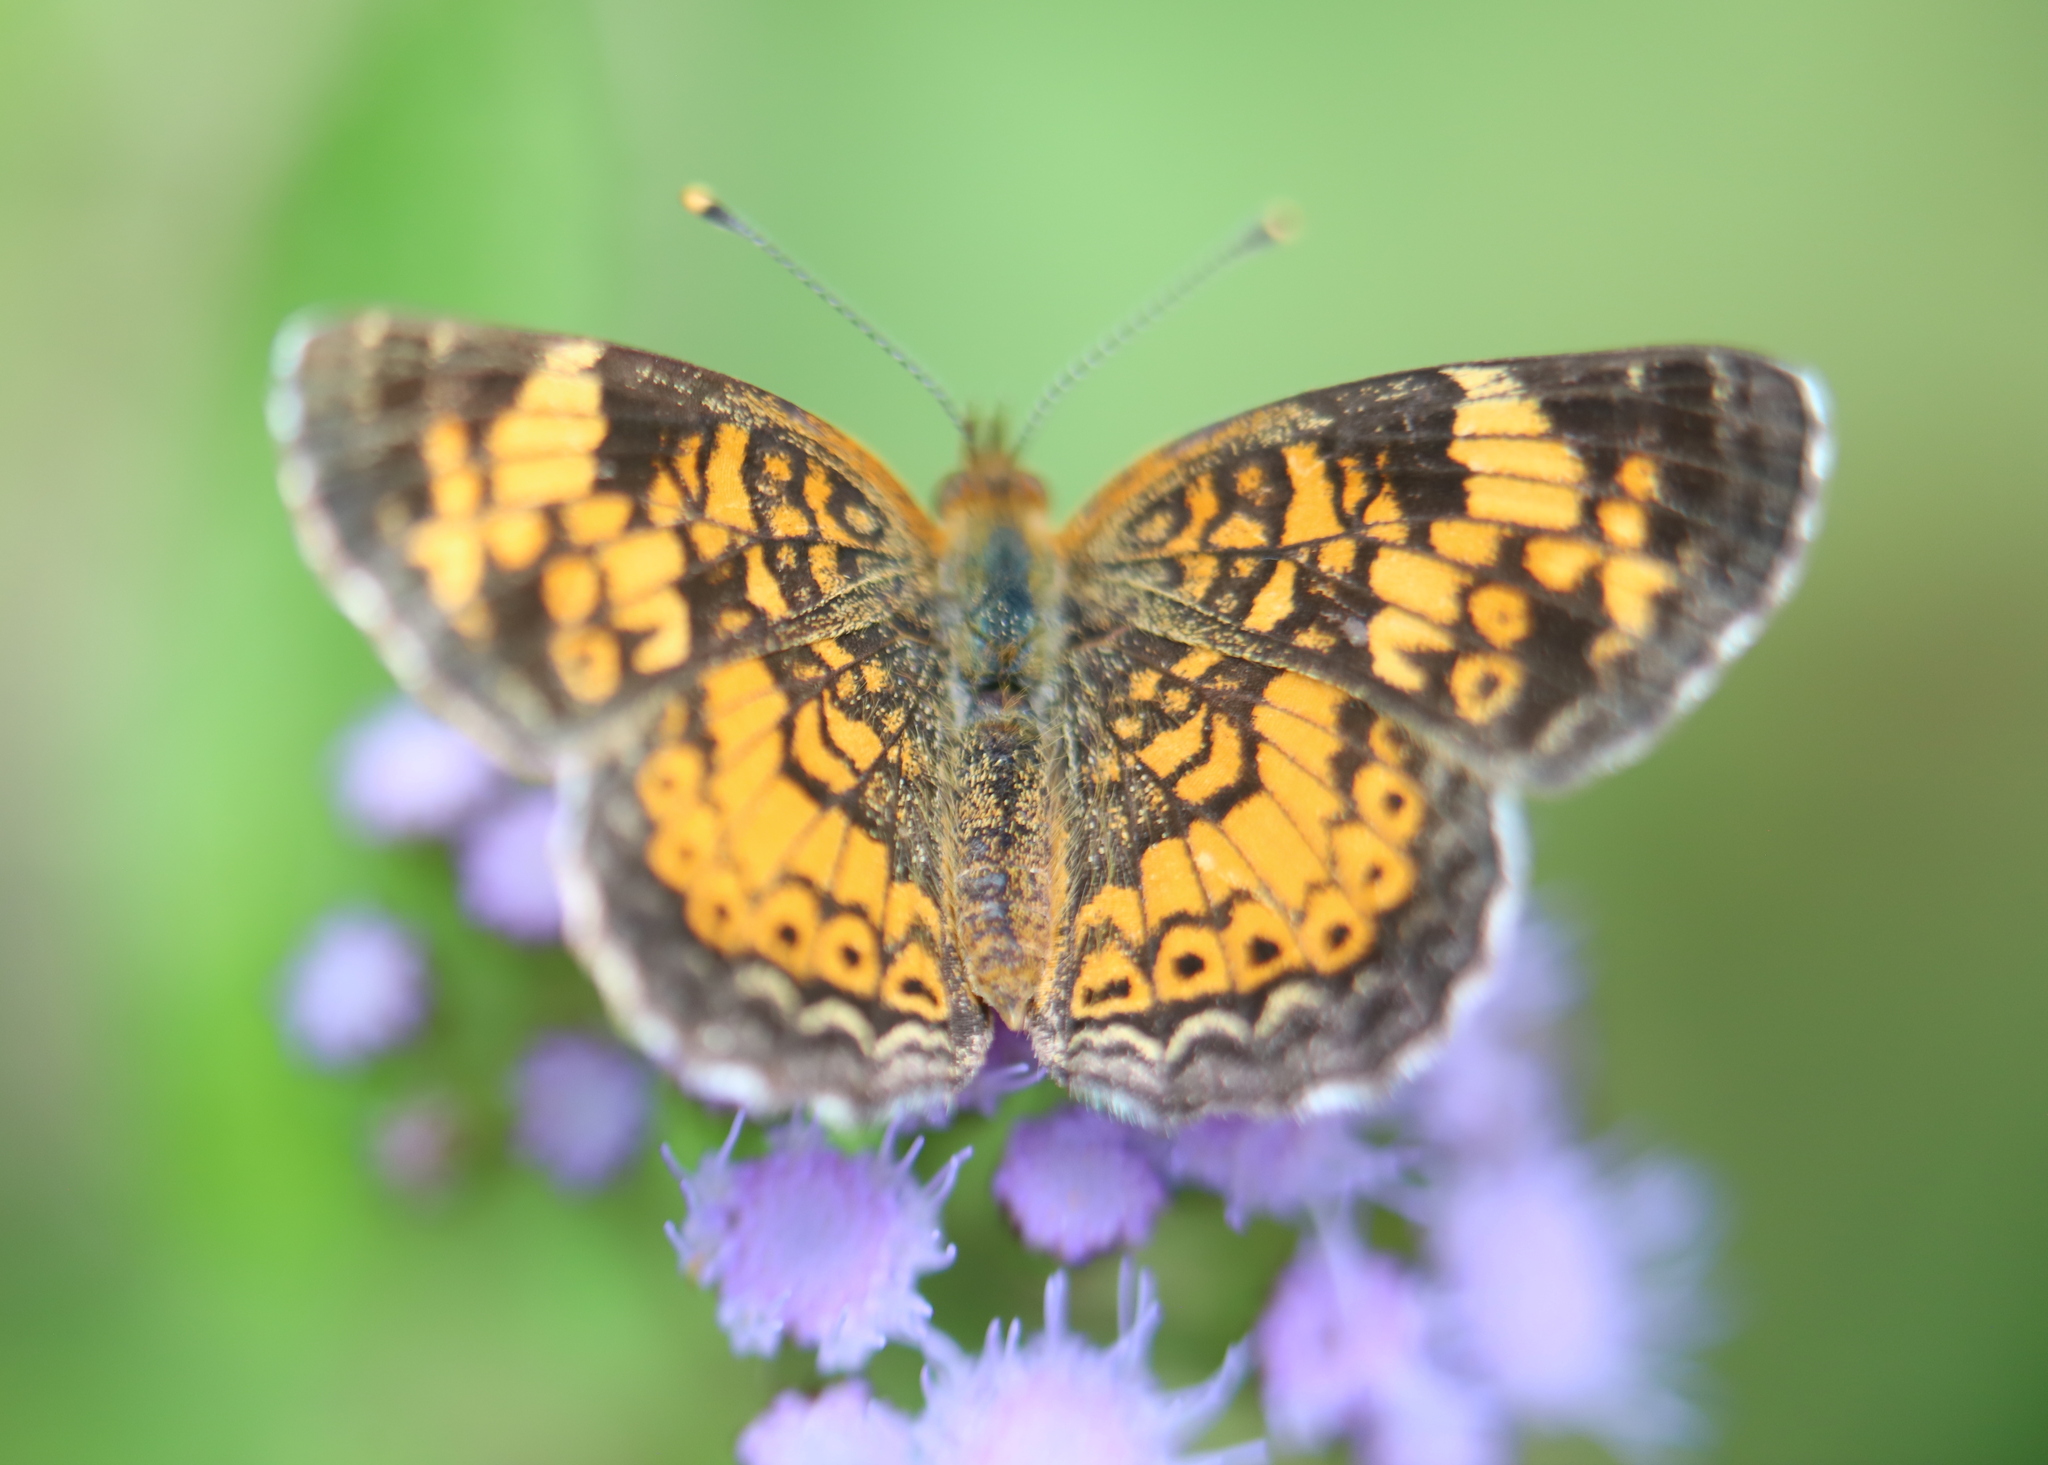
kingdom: Animalia
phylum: Arthropoda
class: Insecta
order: Lepidoptera
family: Nymphalidae
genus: Phyciodes
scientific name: Phyciodes tharos
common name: Pearl crescent
